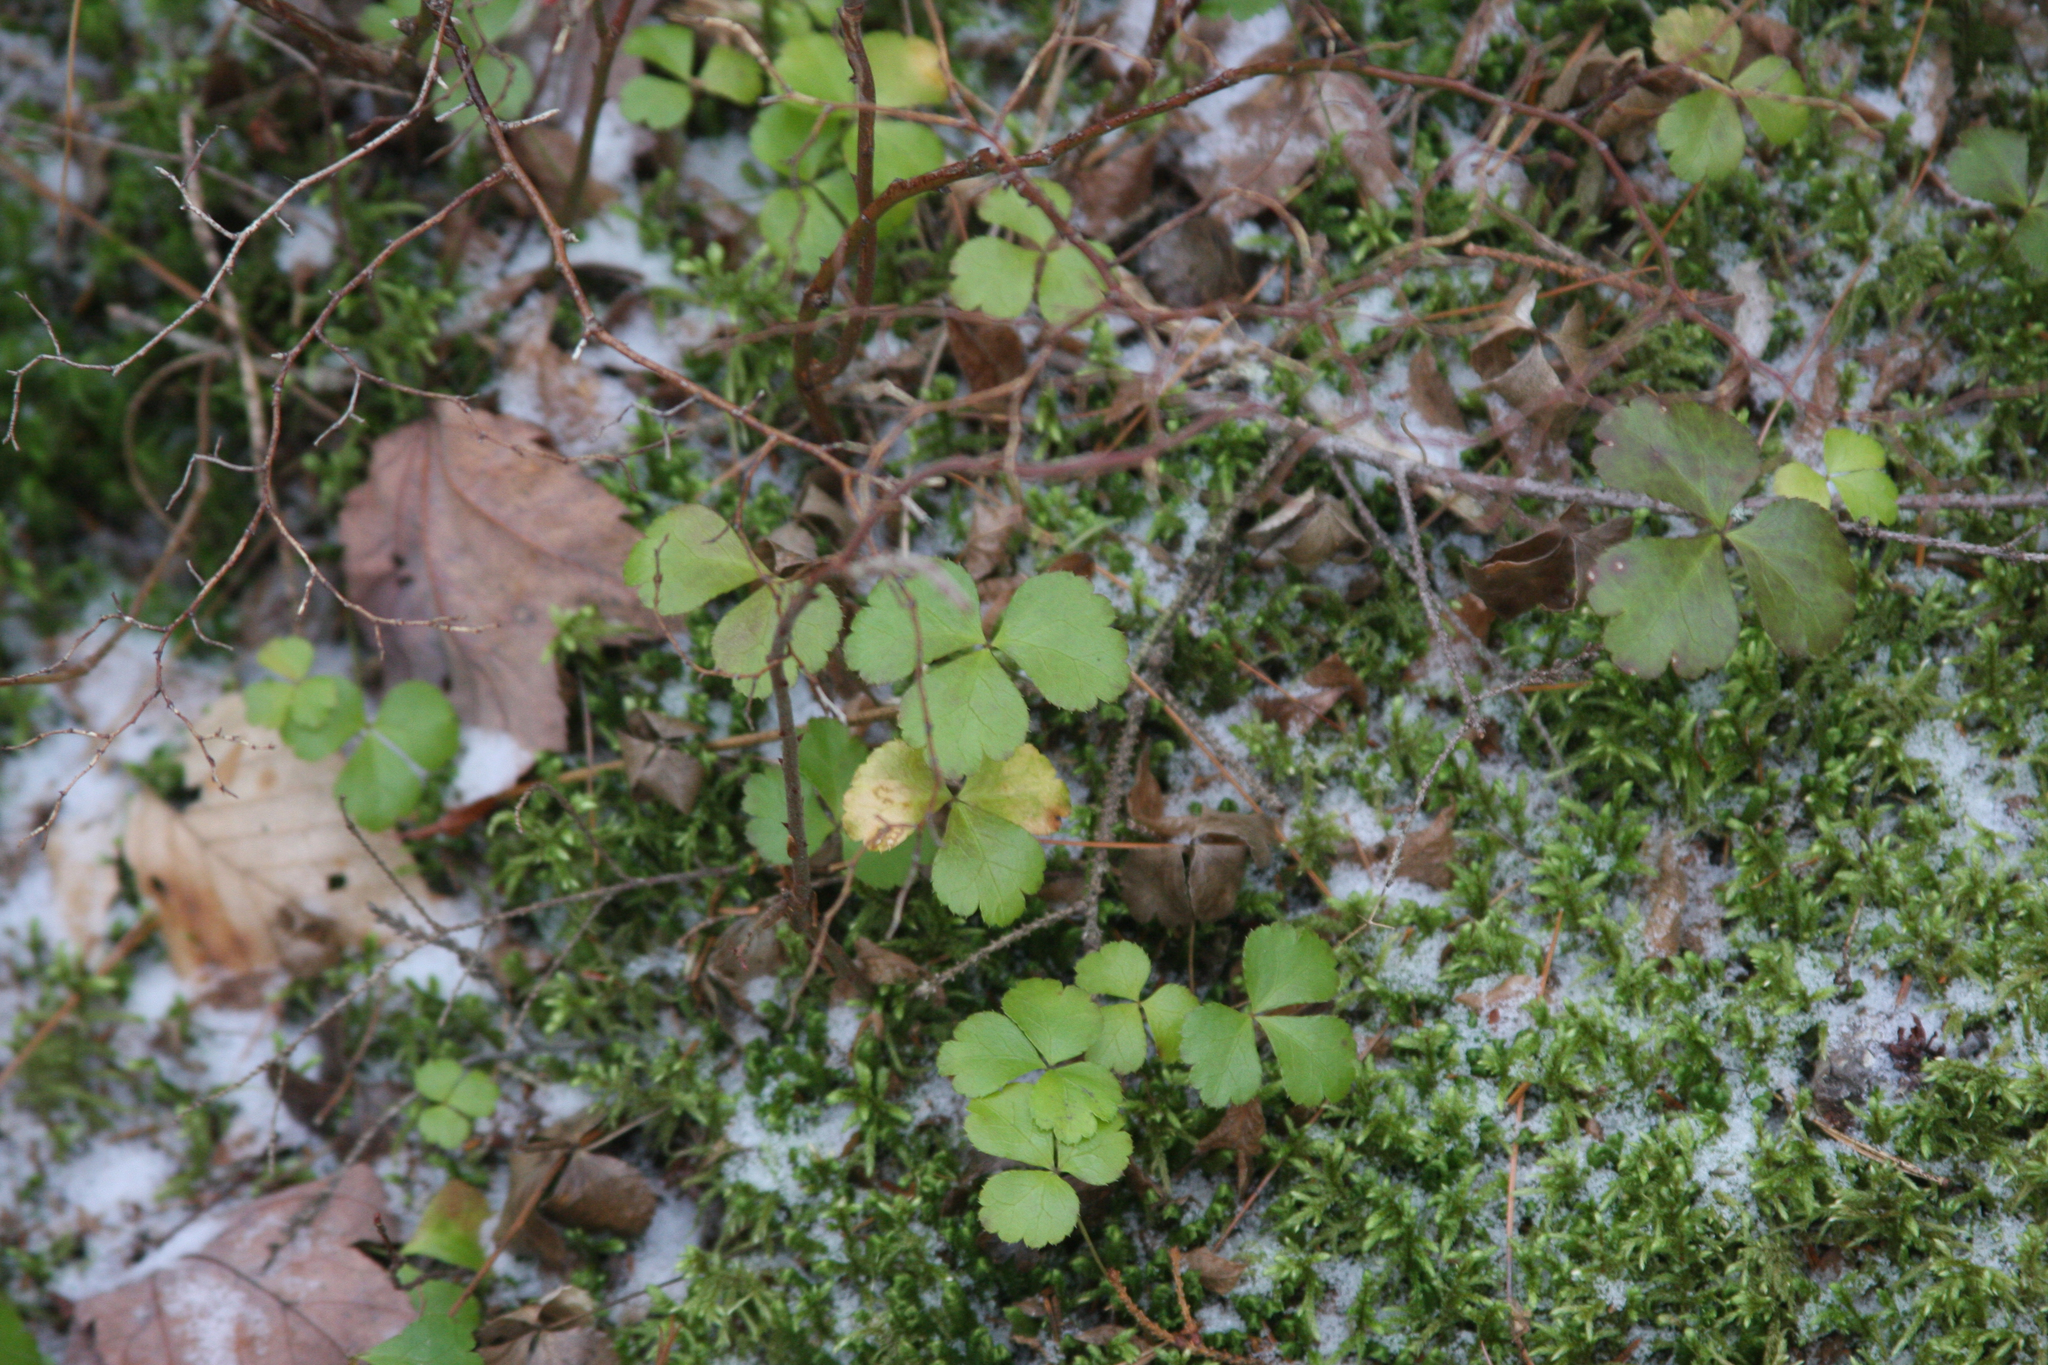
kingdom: Plantae
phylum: Tracheophyta
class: Magnoliopsida
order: Ranunculales
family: Ranunculaceae
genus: Coptis
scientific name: Coptis trifolia
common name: Canker-root
